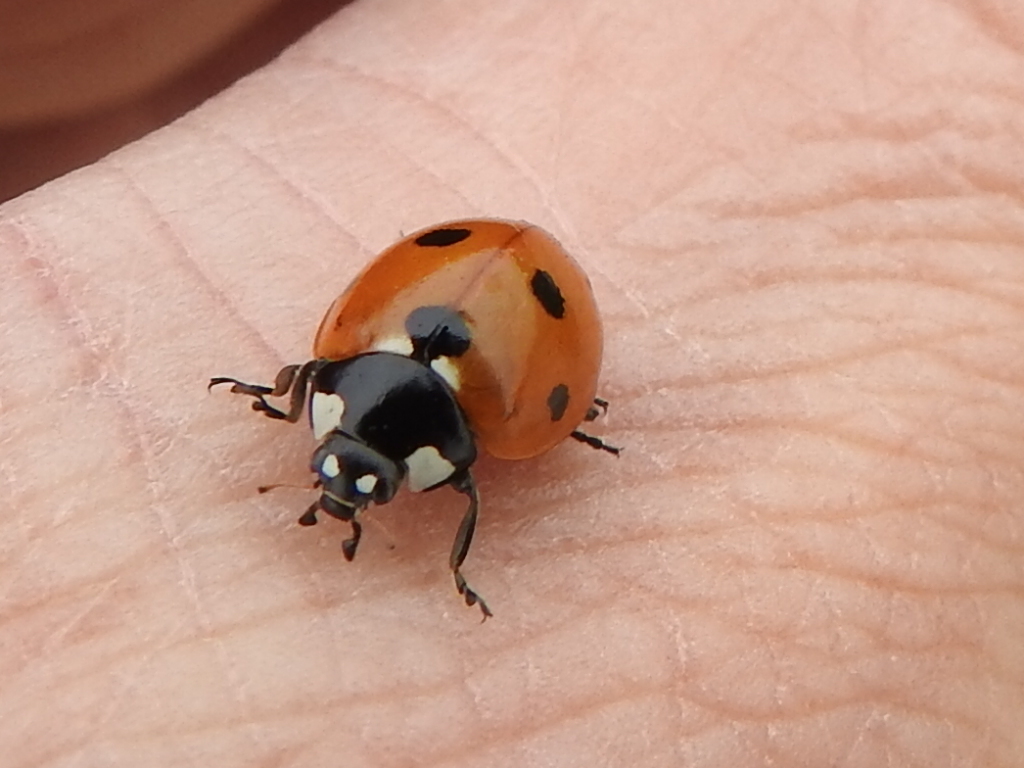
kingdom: Animalia
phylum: Arthropoda
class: Insecta
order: Coleoptera
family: Coccinellidae
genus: Coccinella
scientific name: Coccinella septempunctata
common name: Sevenspotted lady beetle
